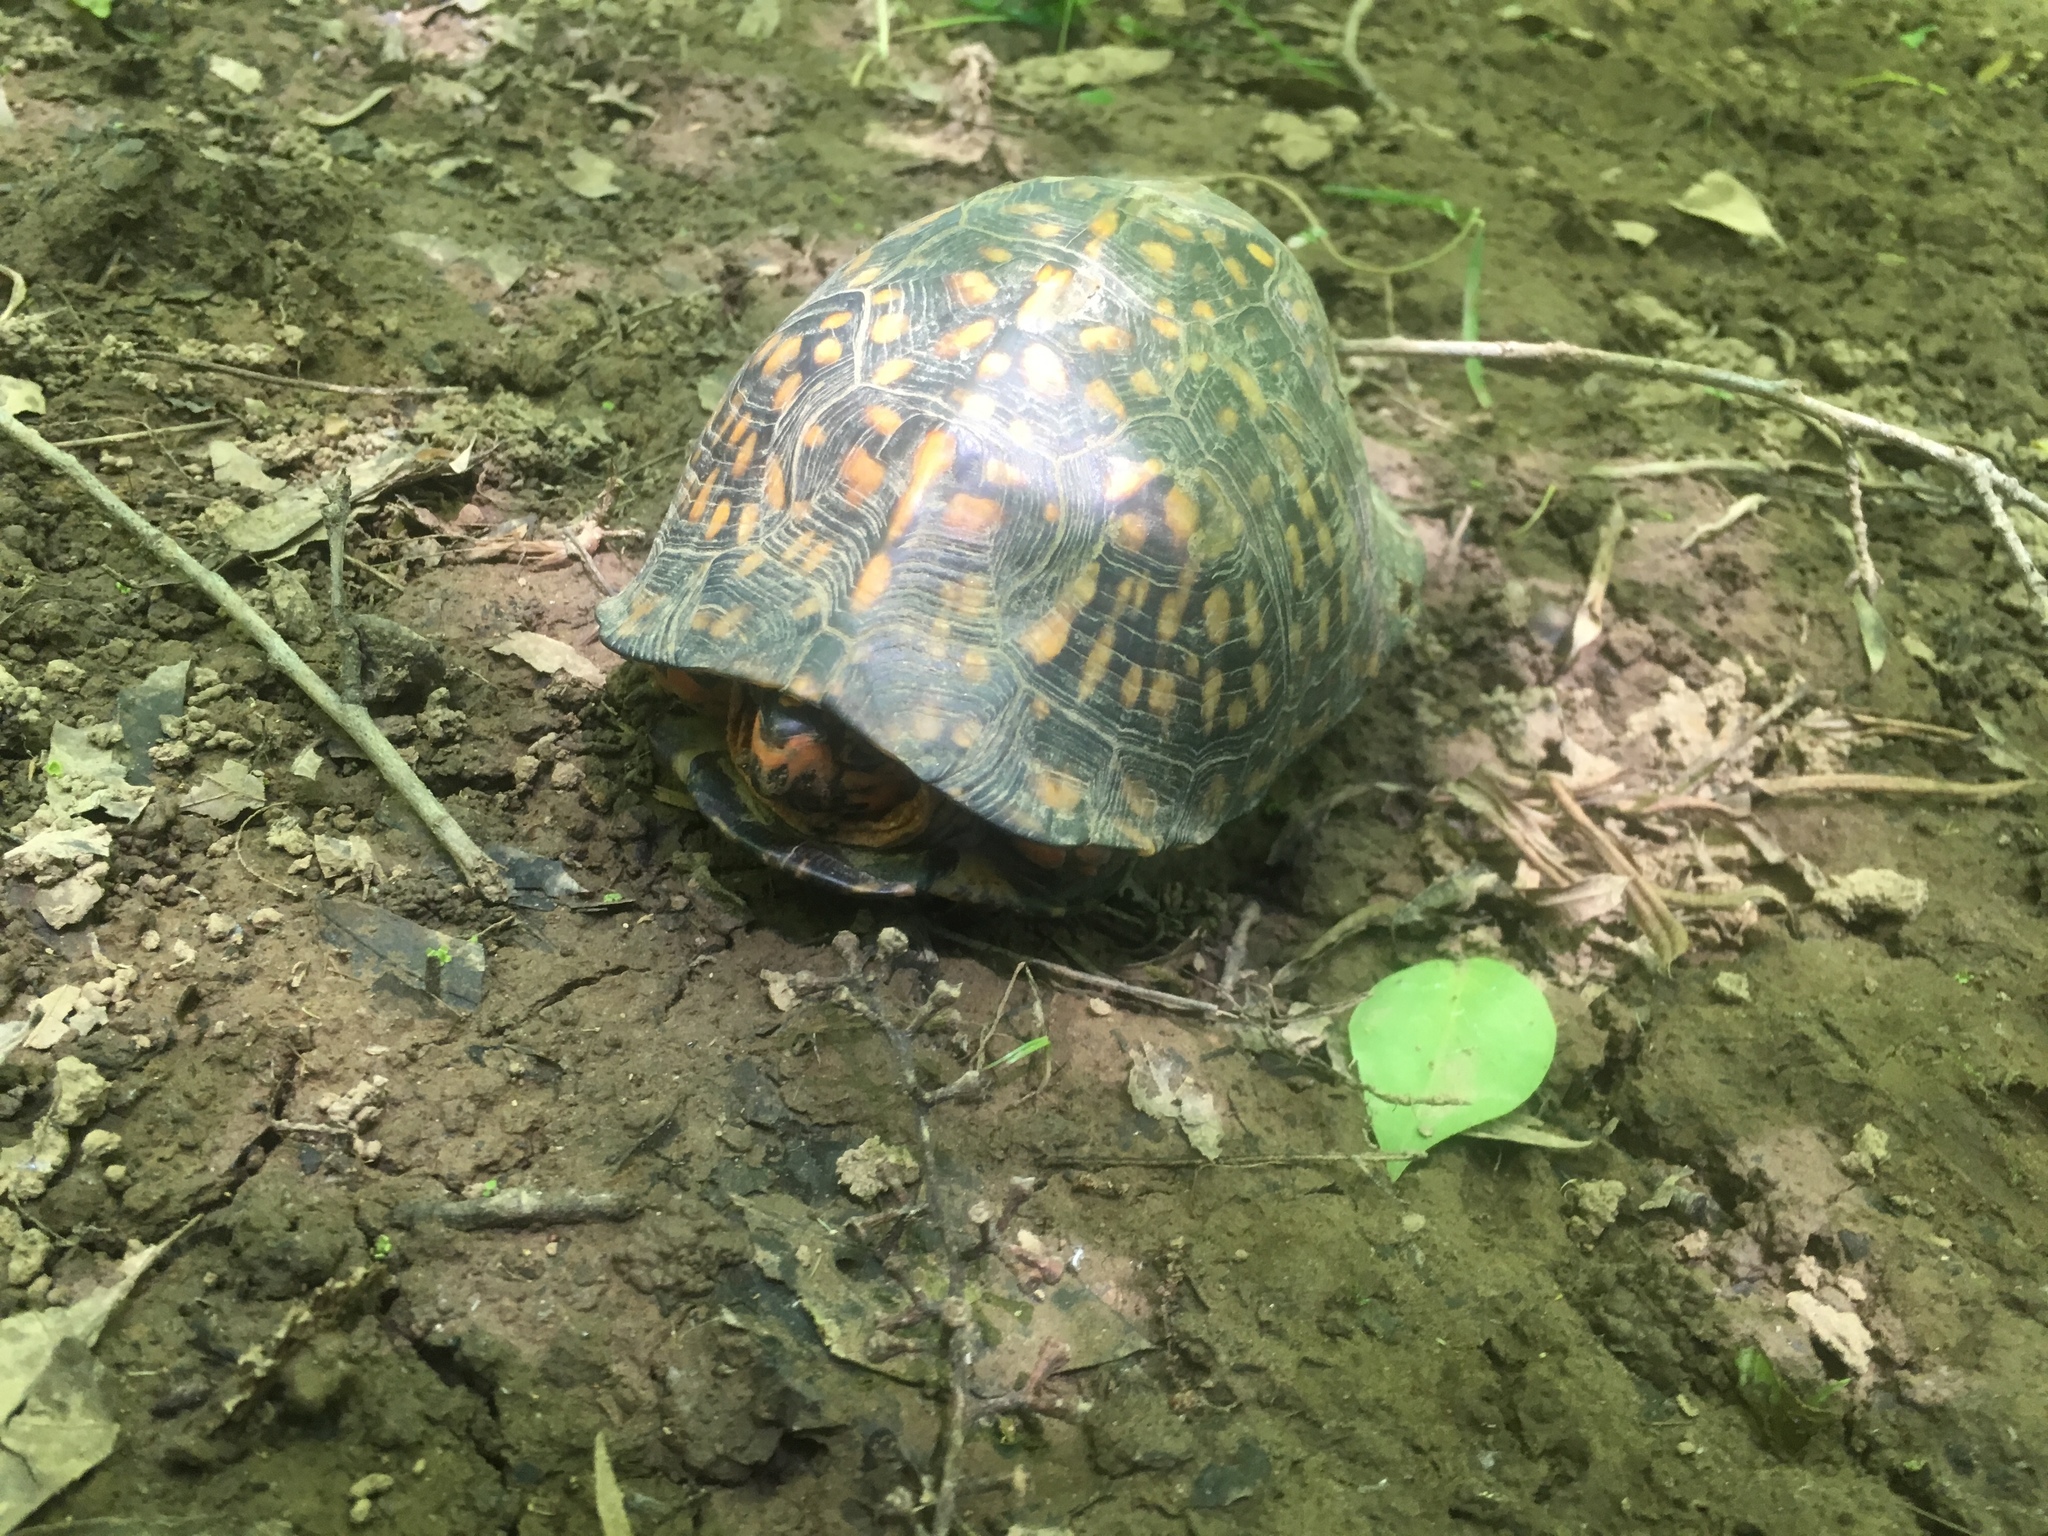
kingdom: Animalia
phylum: Chordata
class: Testudines
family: Emydidae
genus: Terrapene
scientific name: Terrapene carolina
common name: Common box turtle
